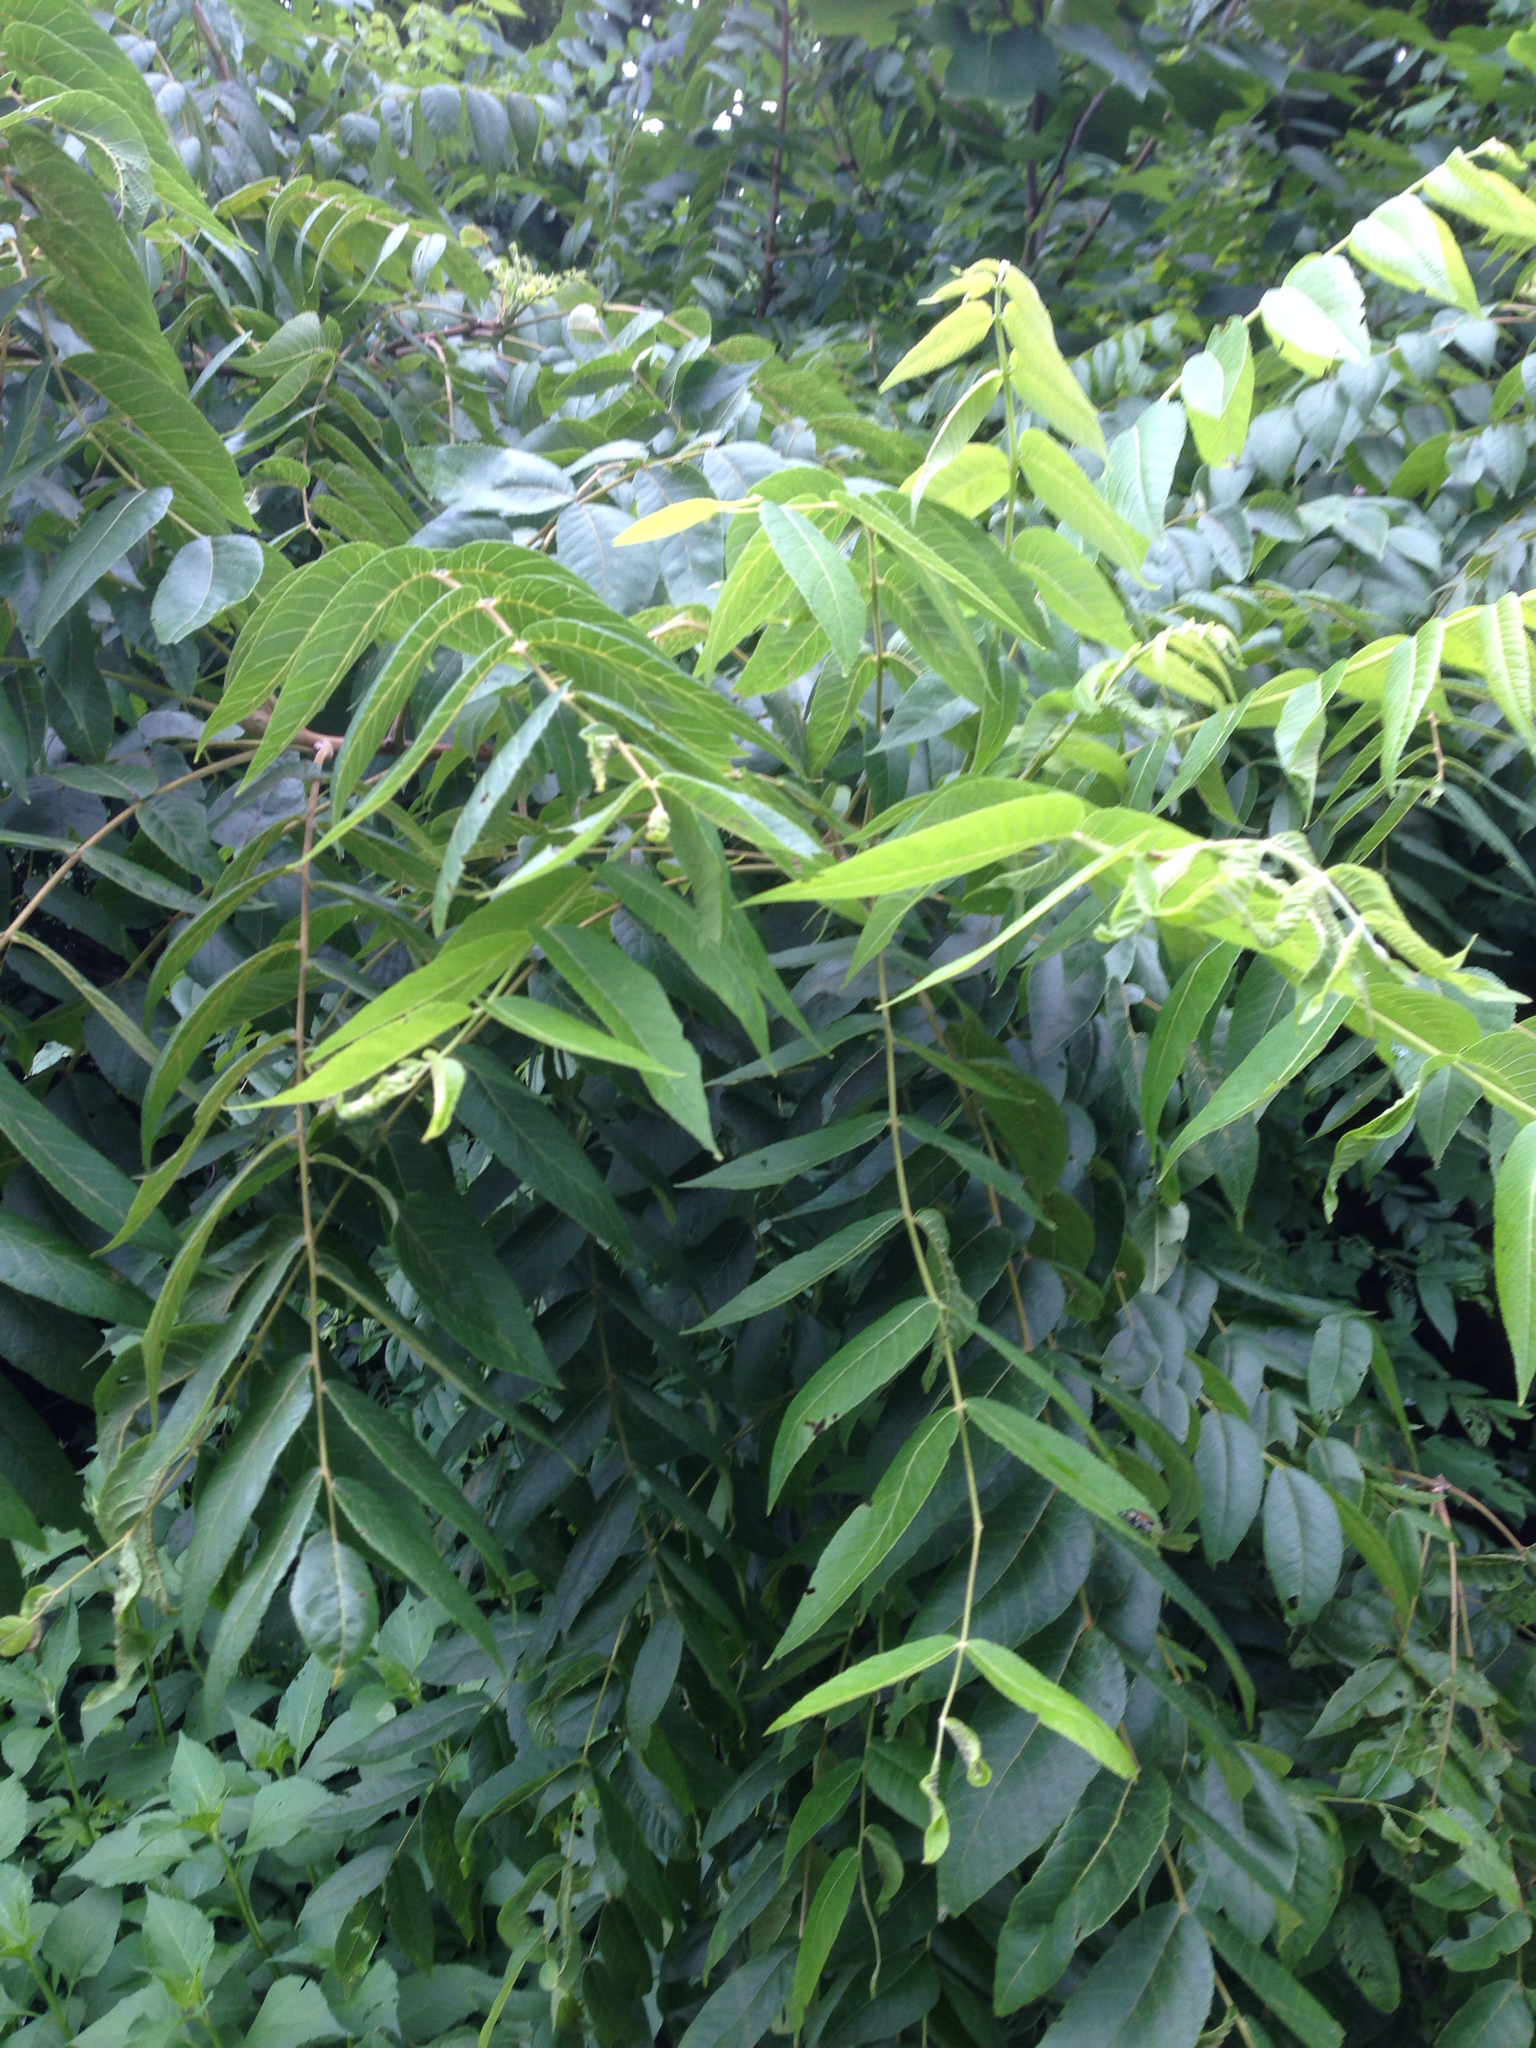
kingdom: Plantae
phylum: Tracheophyta
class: Magnoliopsida
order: Fagales
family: Juglandaceae
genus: Juglans
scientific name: Juglans nigra
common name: Black walnut
